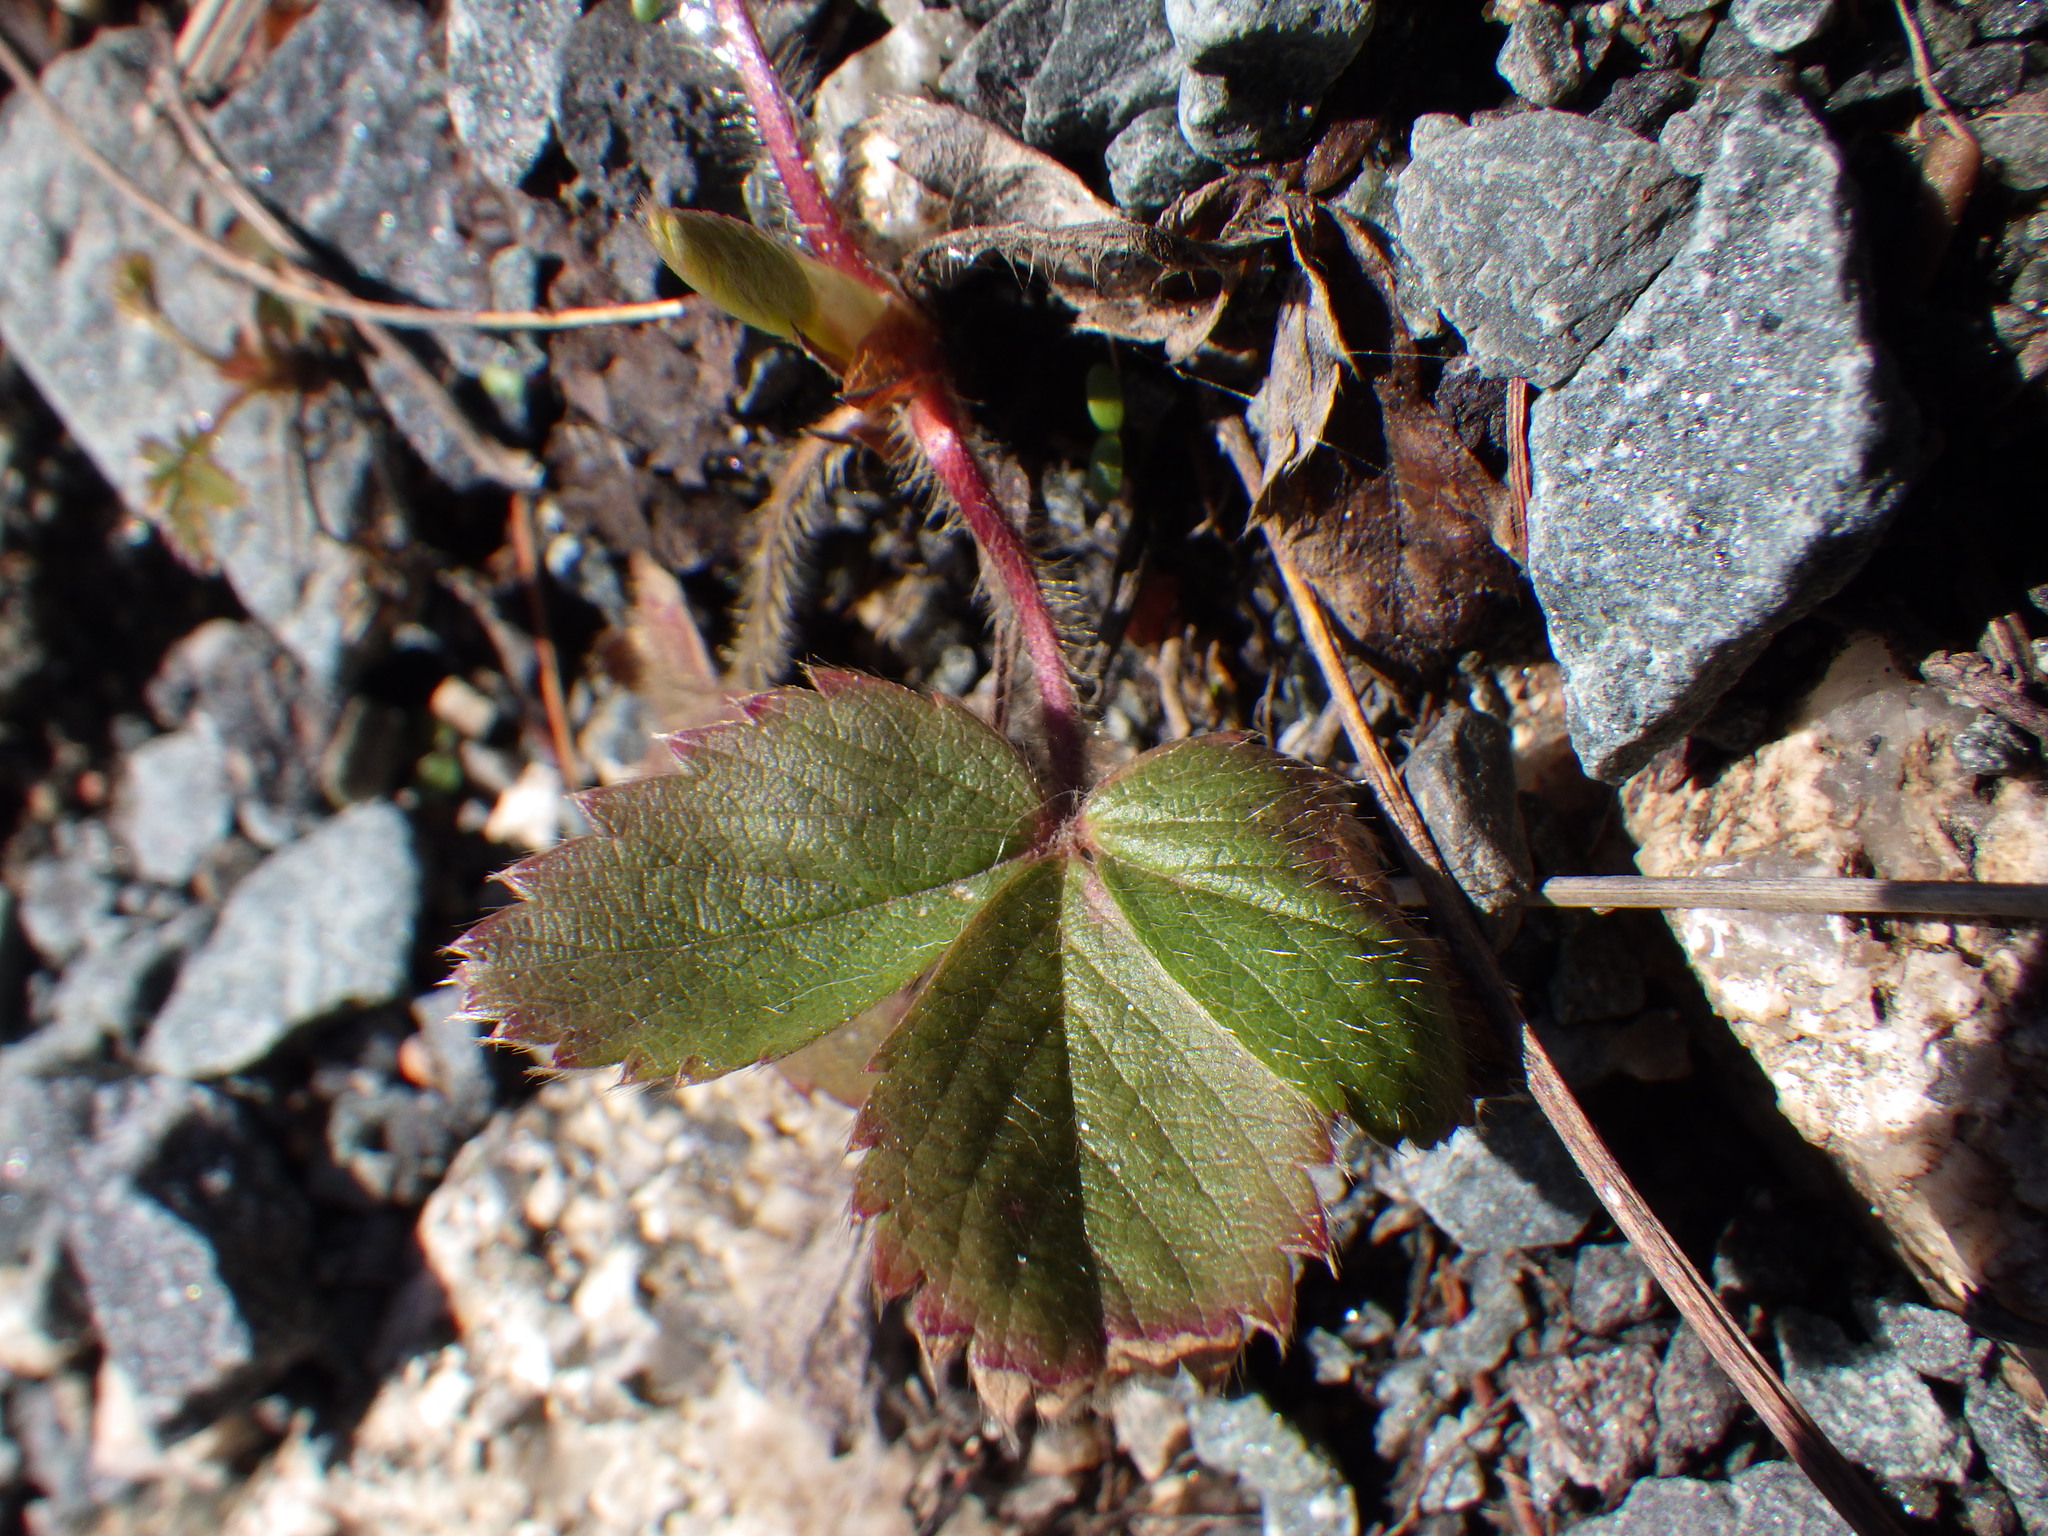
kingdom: Plantae
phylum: Tracheophyta
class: Magnoliopsida
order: Rosales
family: Rosaceae
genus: Fragaria
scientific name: Fragaria virginiana
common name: Thickleaved wild strawberry
